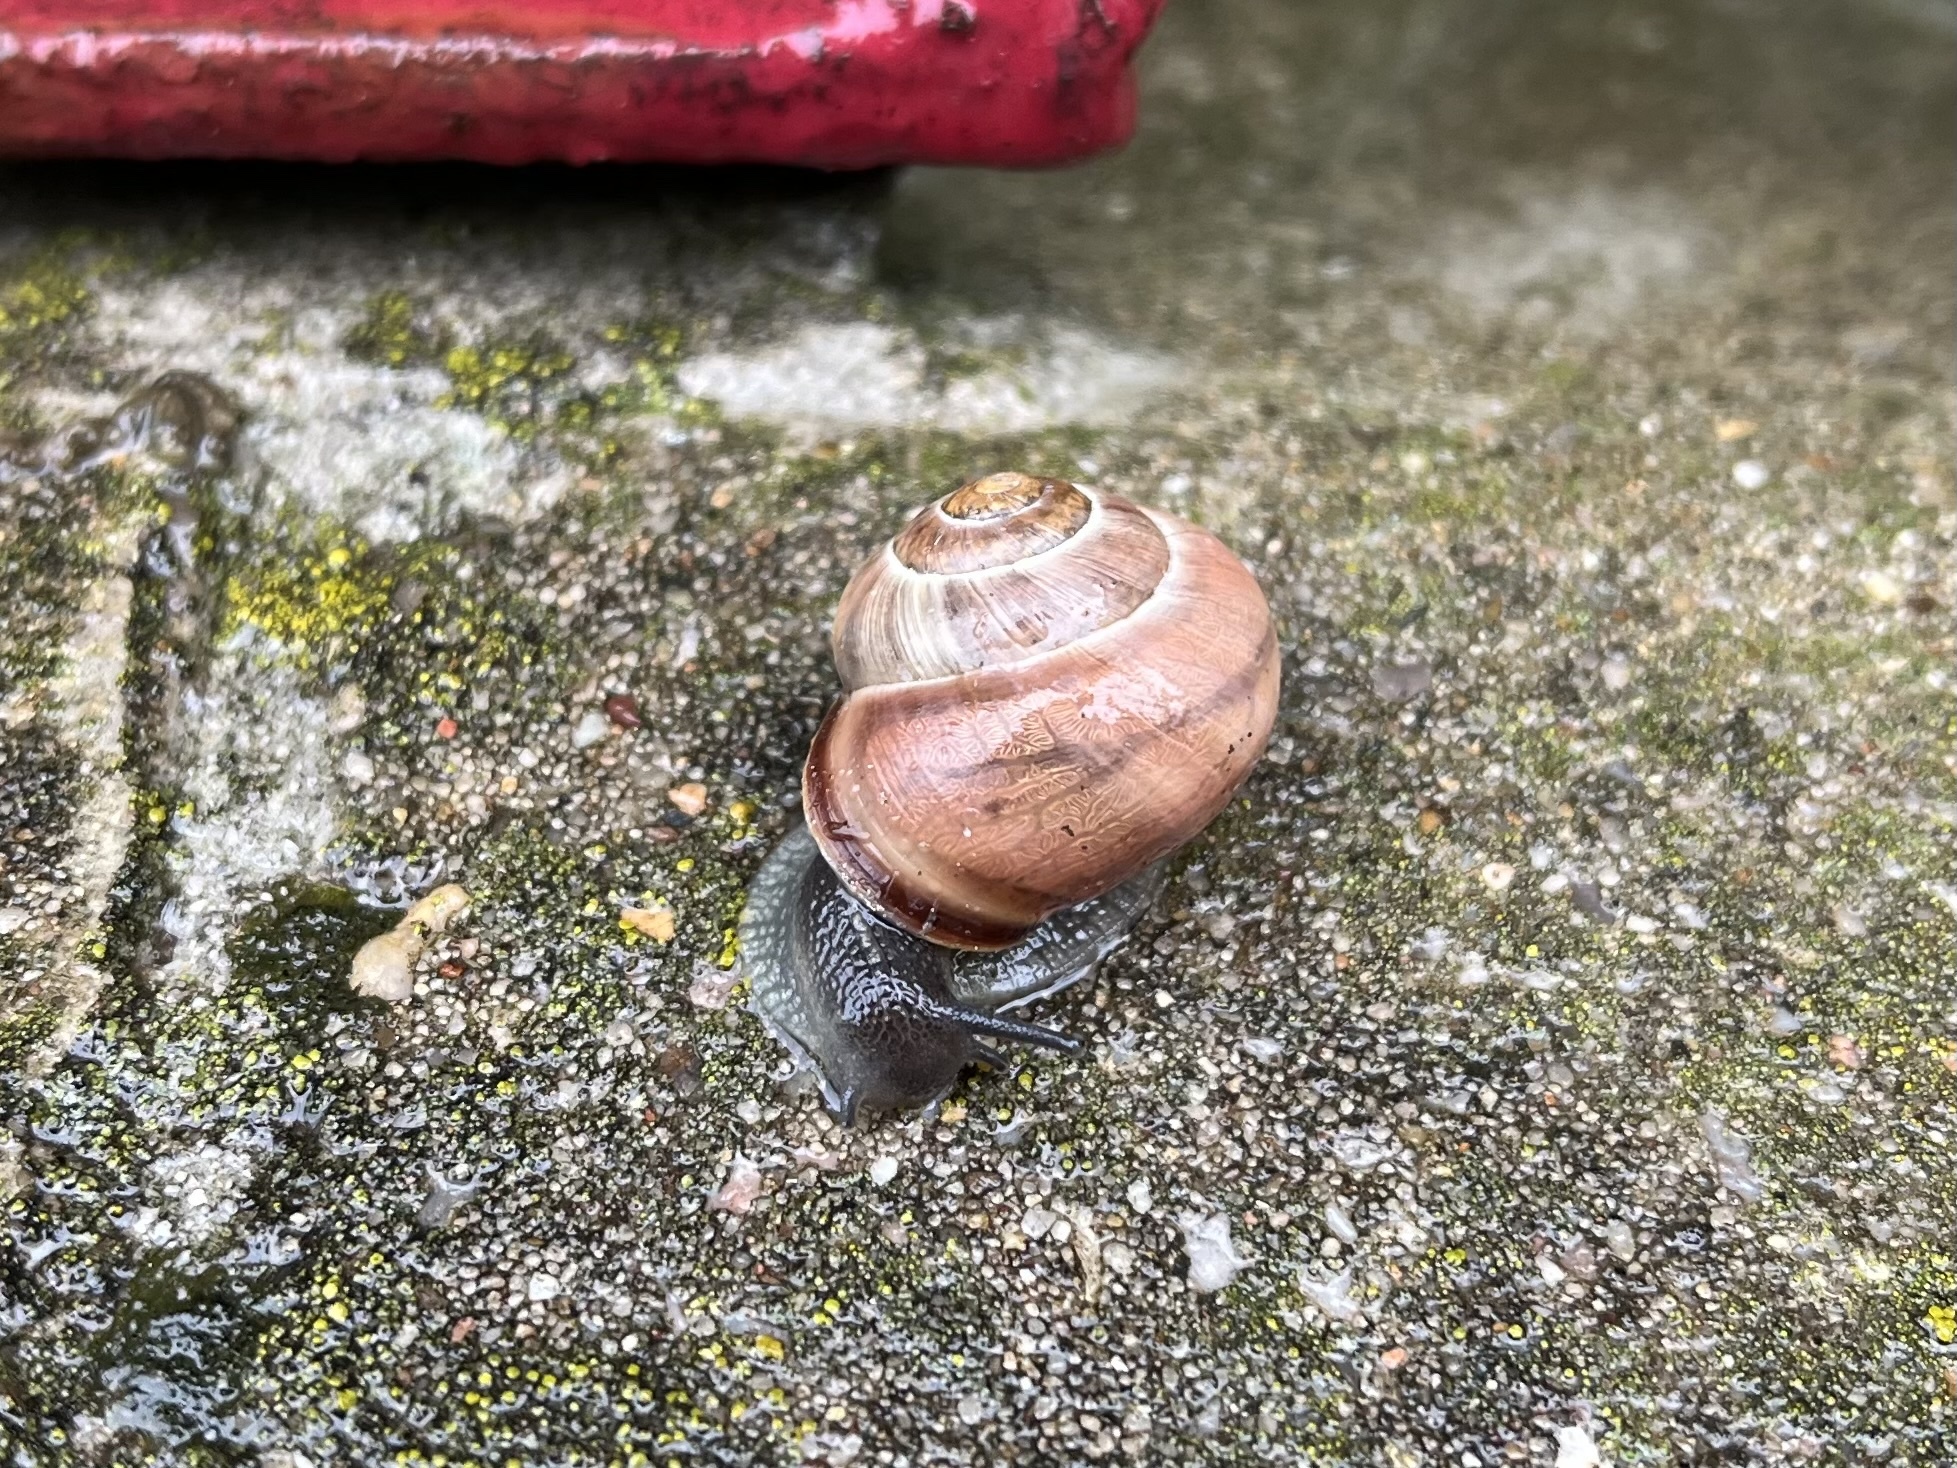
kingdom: Animalia
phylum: Mollusca
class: Gastropoda
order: Stylommatophora
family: Helicidae
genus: Cepaea
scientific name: Cepaea nemoralis
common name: Grovesnail
